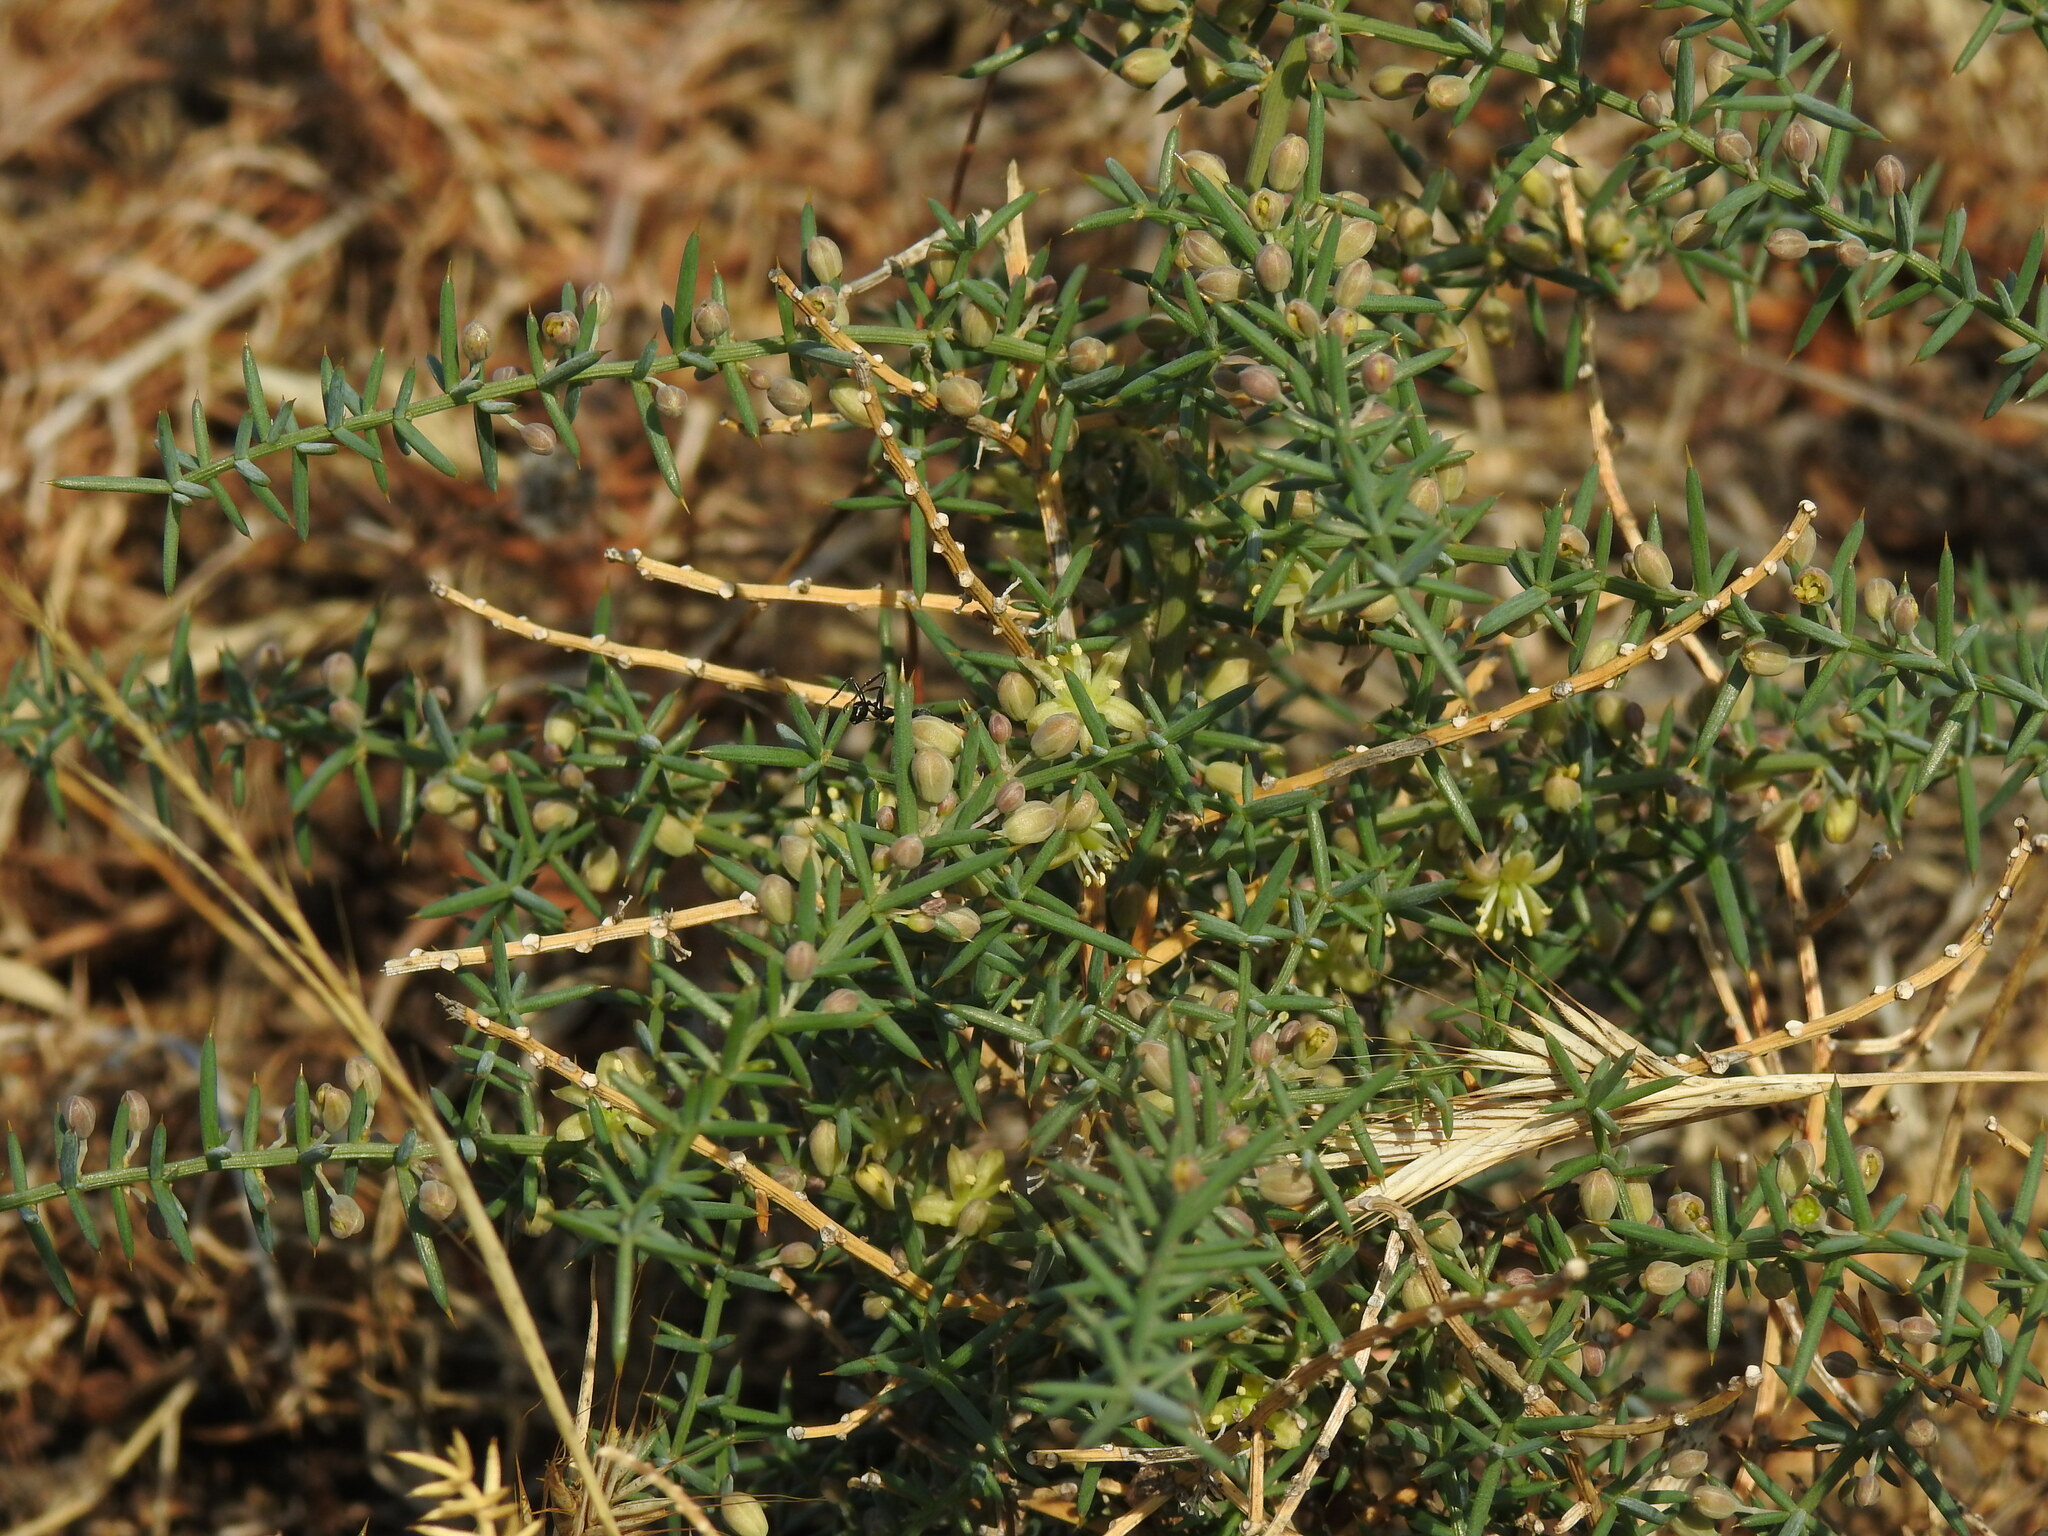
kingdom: Plantae
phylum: Tracheophyta
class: Liliopsida
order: Asparagales
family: Asparagaceae
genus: Asparagus
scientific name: Asparagus aphyllus
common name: Mediterranean asparagus
